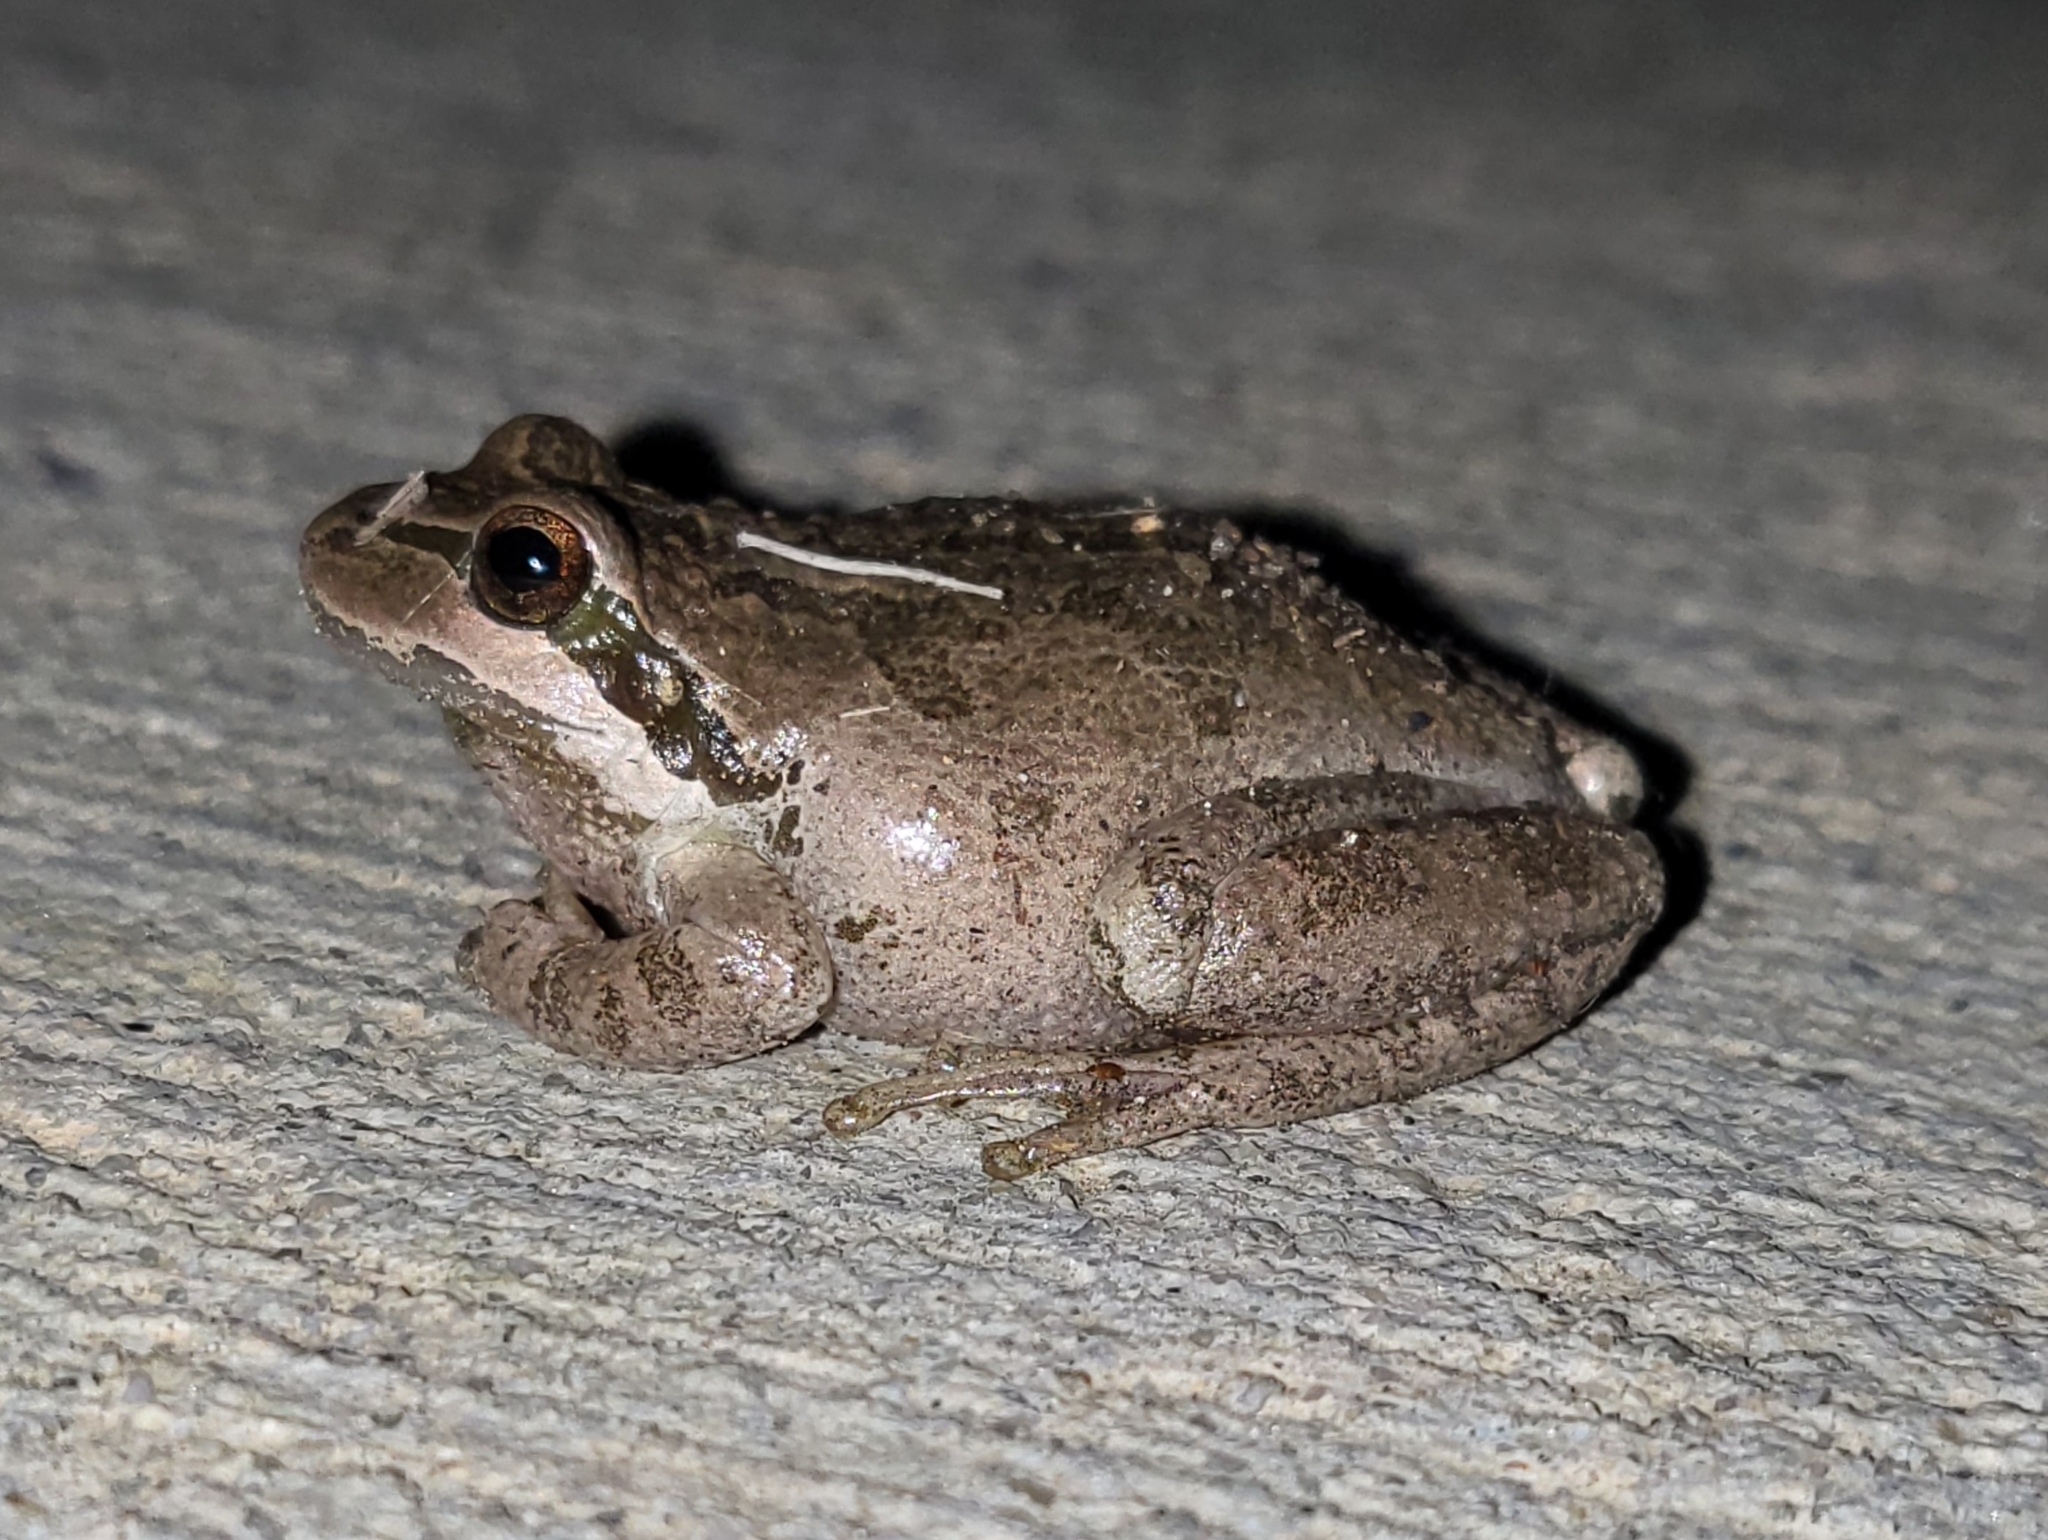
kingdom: Animalia
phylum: Chordata
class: Amphibia
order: Anura
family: Hylidae
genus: Pseudacris
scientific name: Pseudacris regilla
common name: Pacific chorus frog
